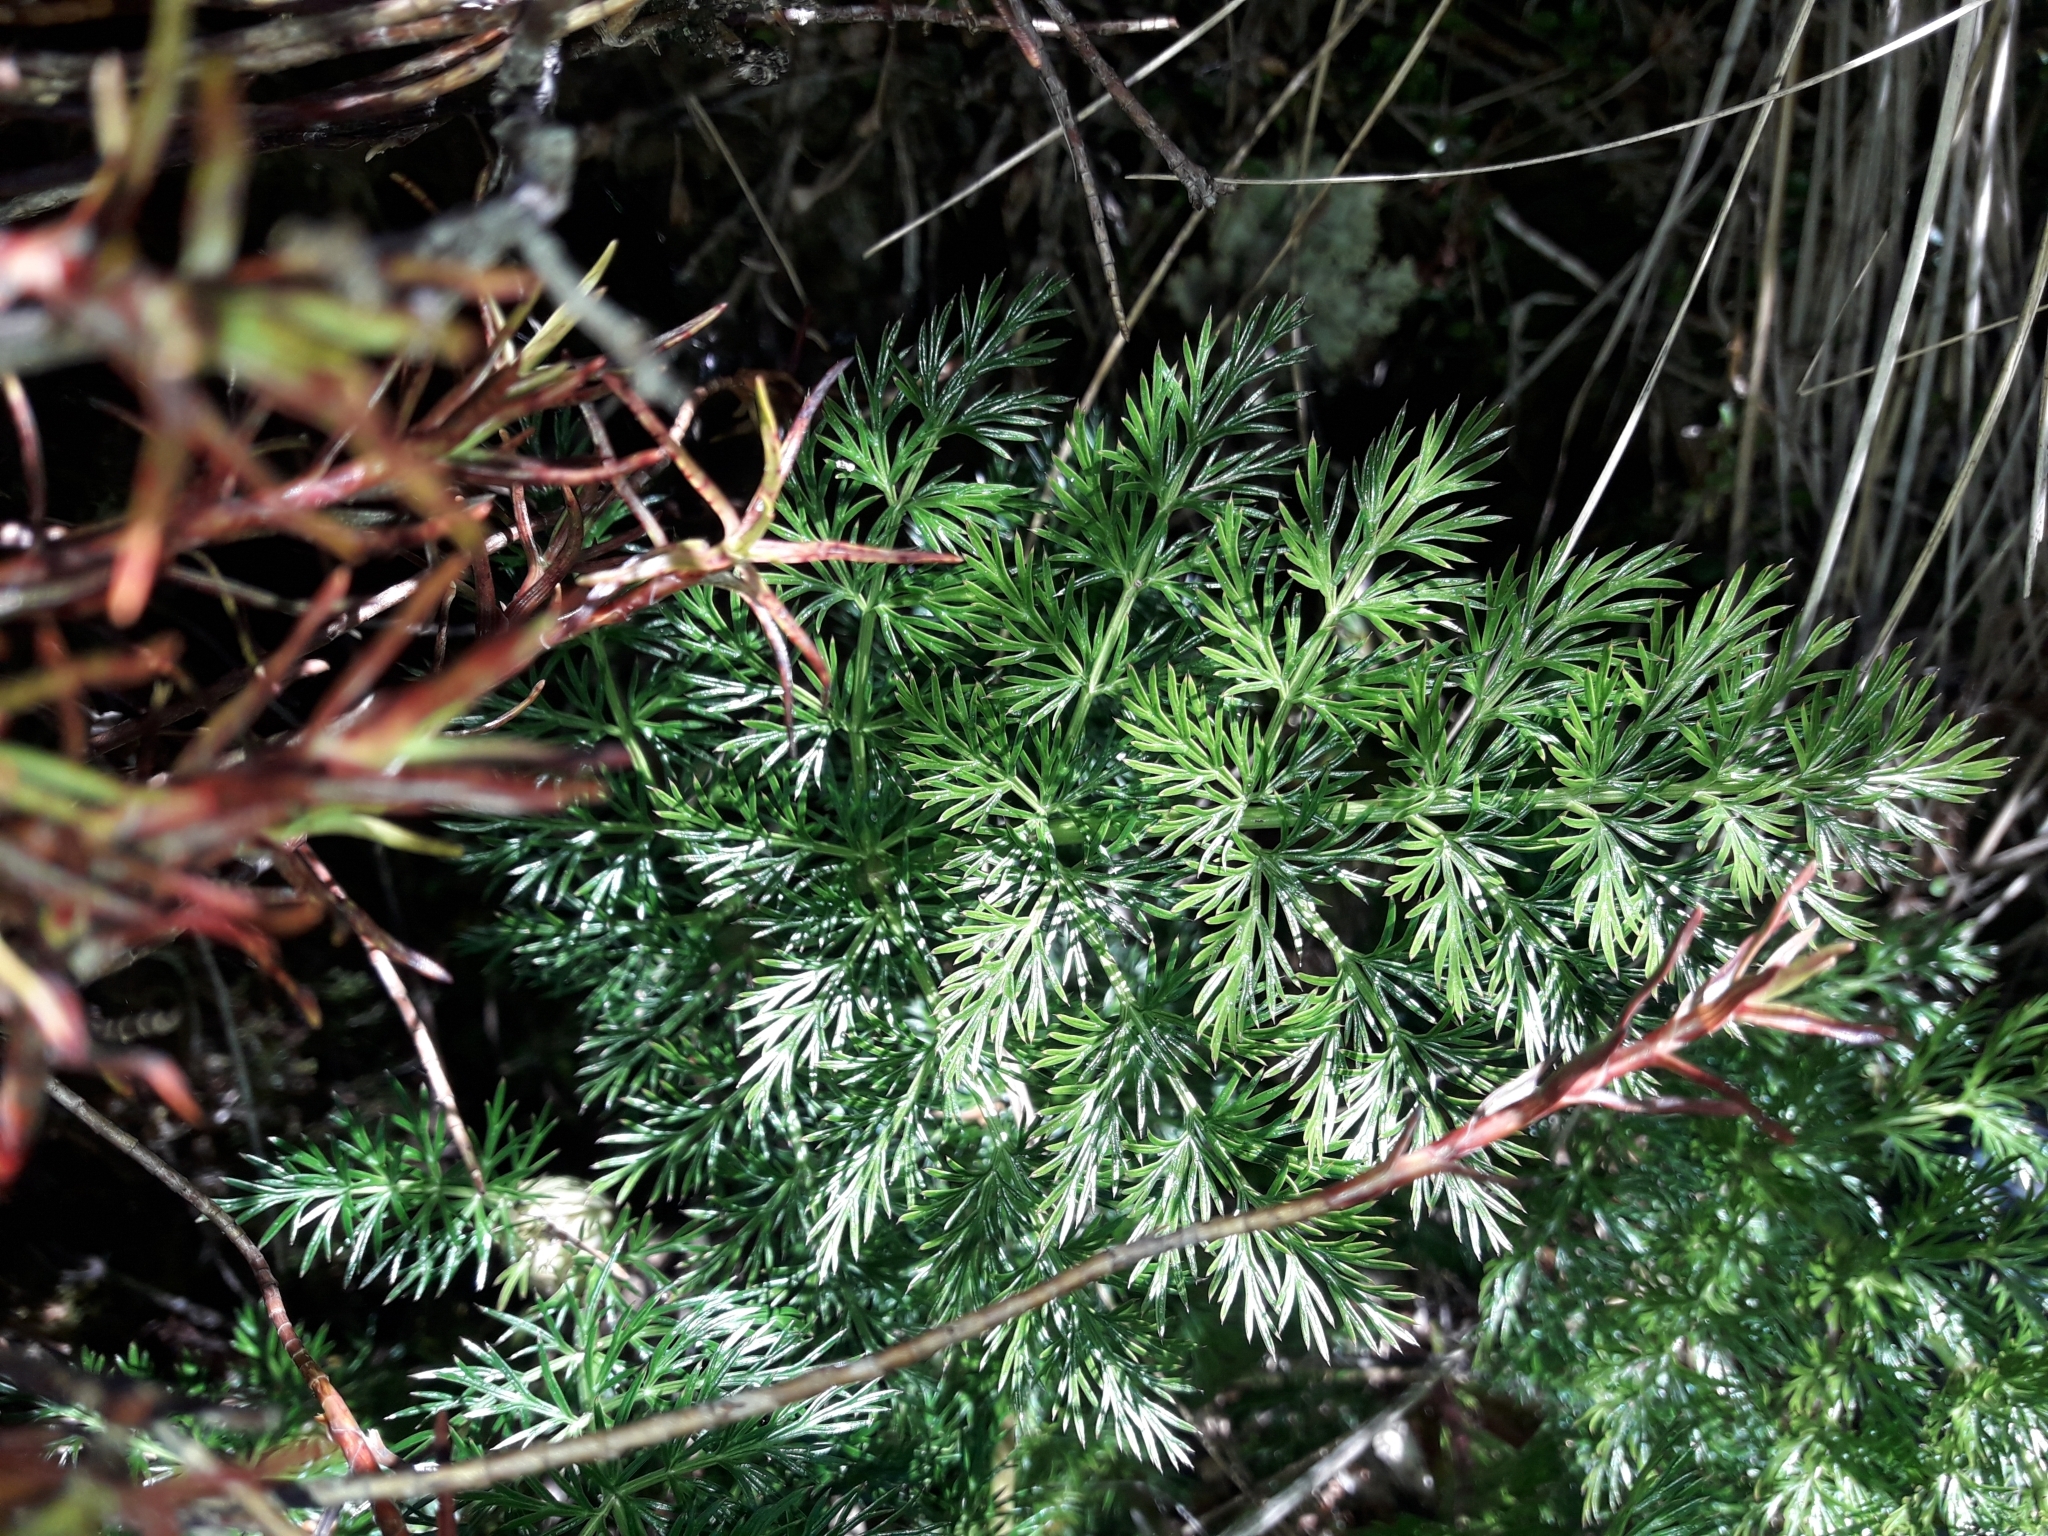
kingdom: Plantae
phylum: Tracheophyta
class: Magnoliopsida
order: Apiales
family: Apiaceae
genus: Anisotome
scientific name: Anisotome haastii
